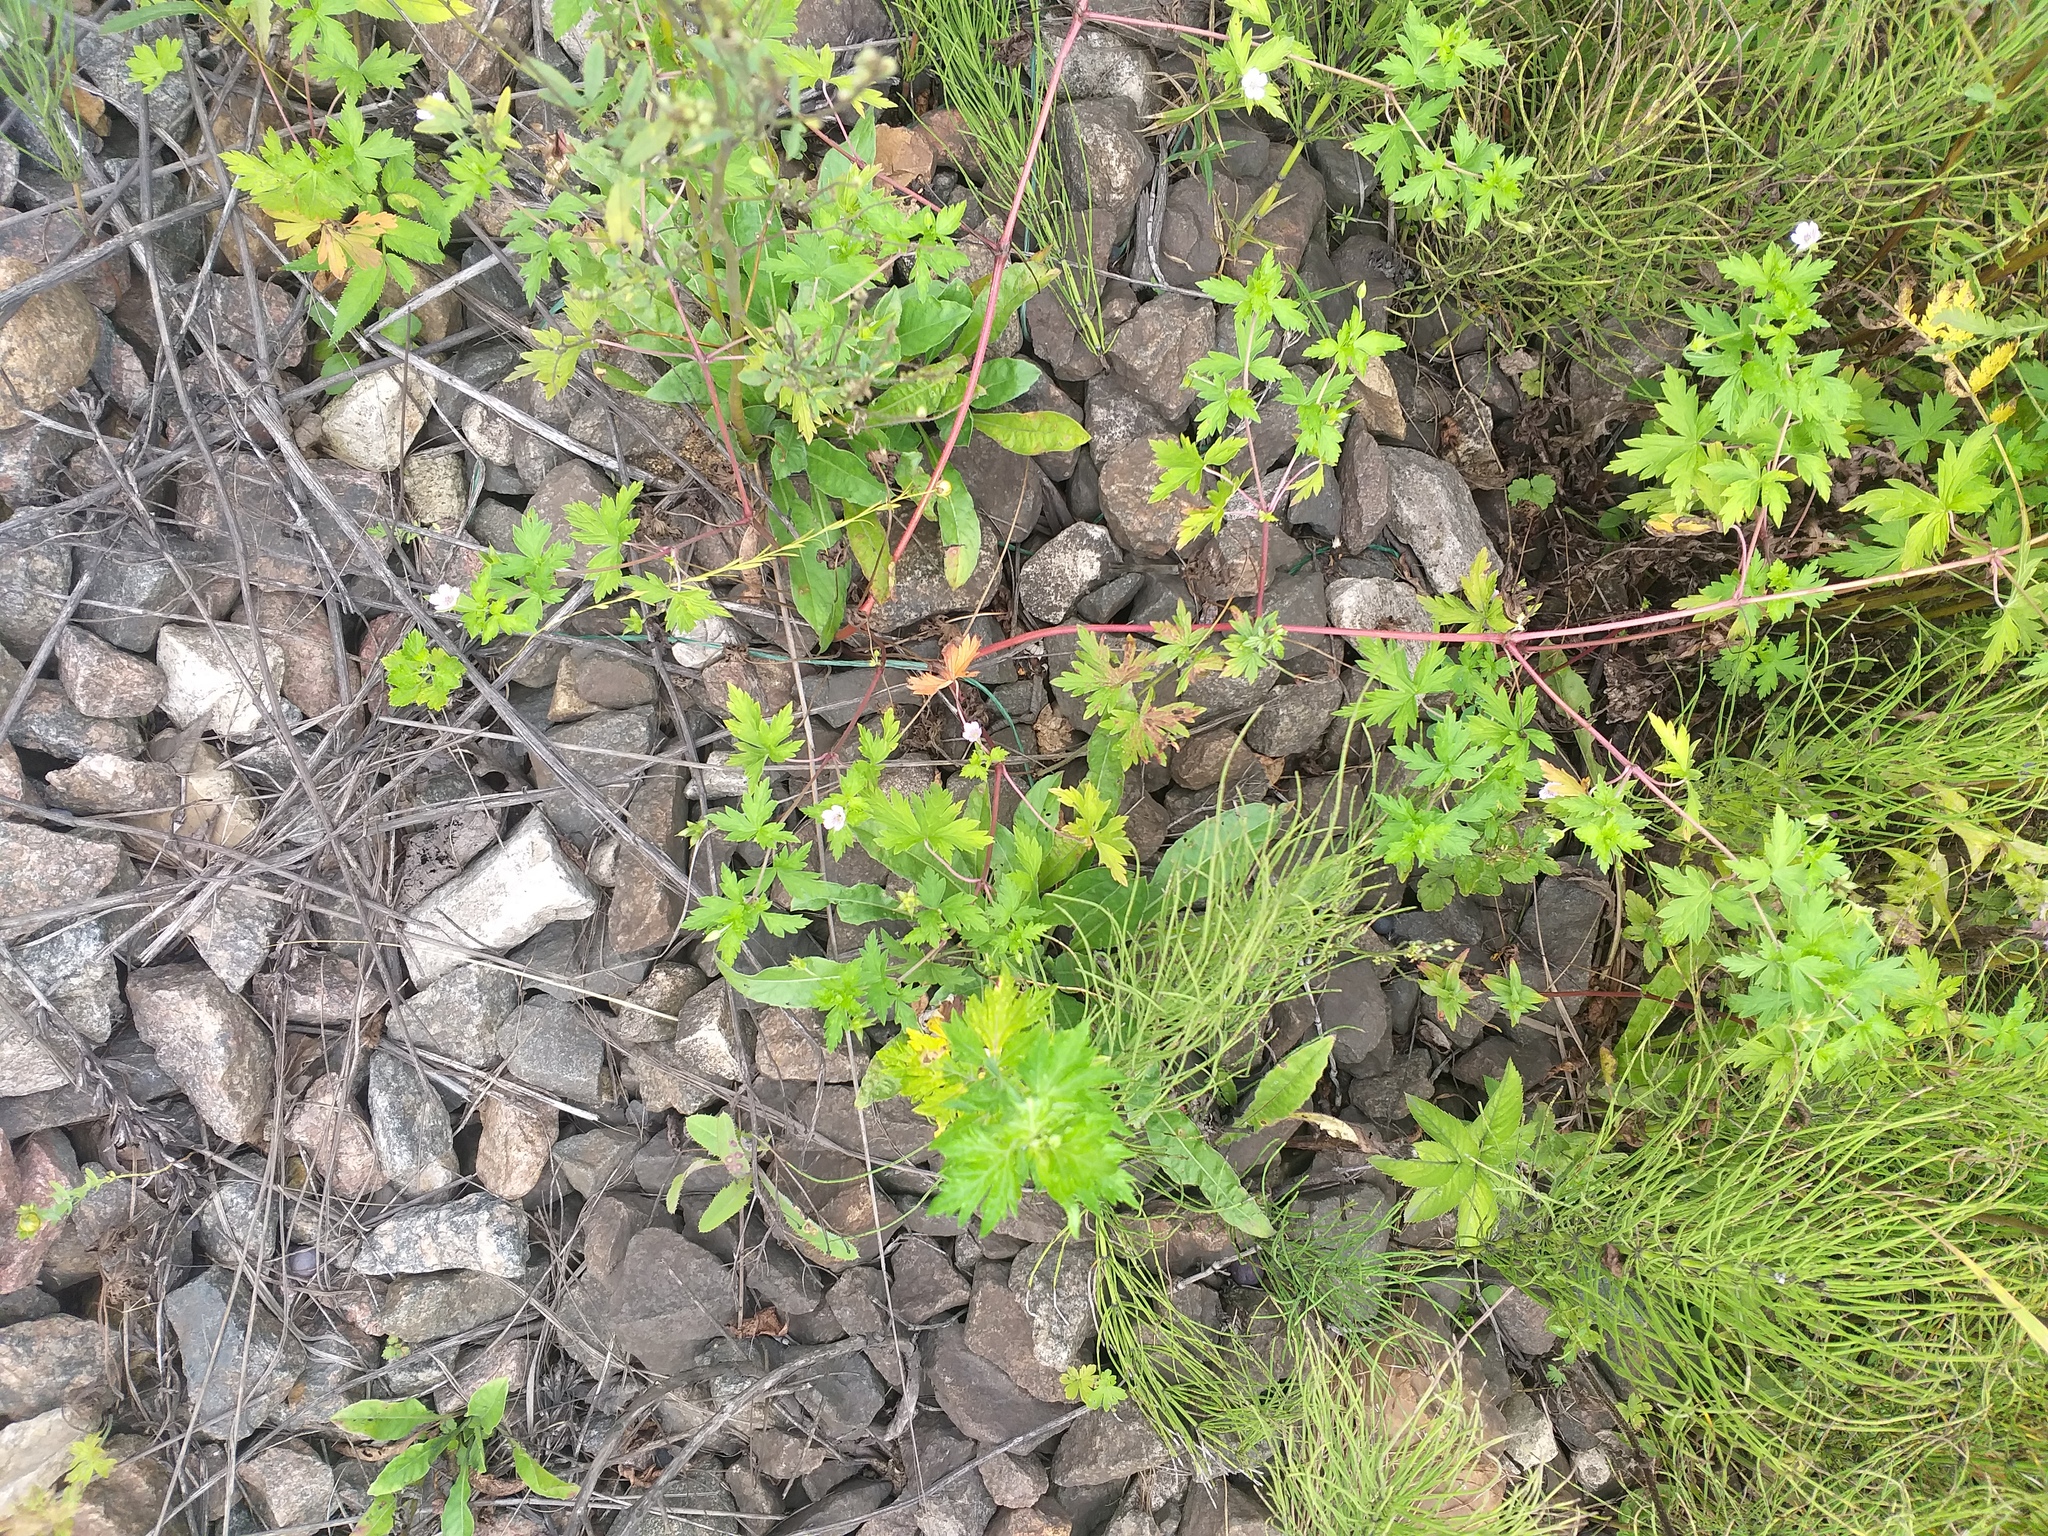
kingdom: Plantae
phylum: Tracheophyta
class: Magnoliopsida
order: Geraniales
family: Geraniaceae
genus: Geranium
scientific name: Geranium sibiricum
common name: Siberian crane's-bill
